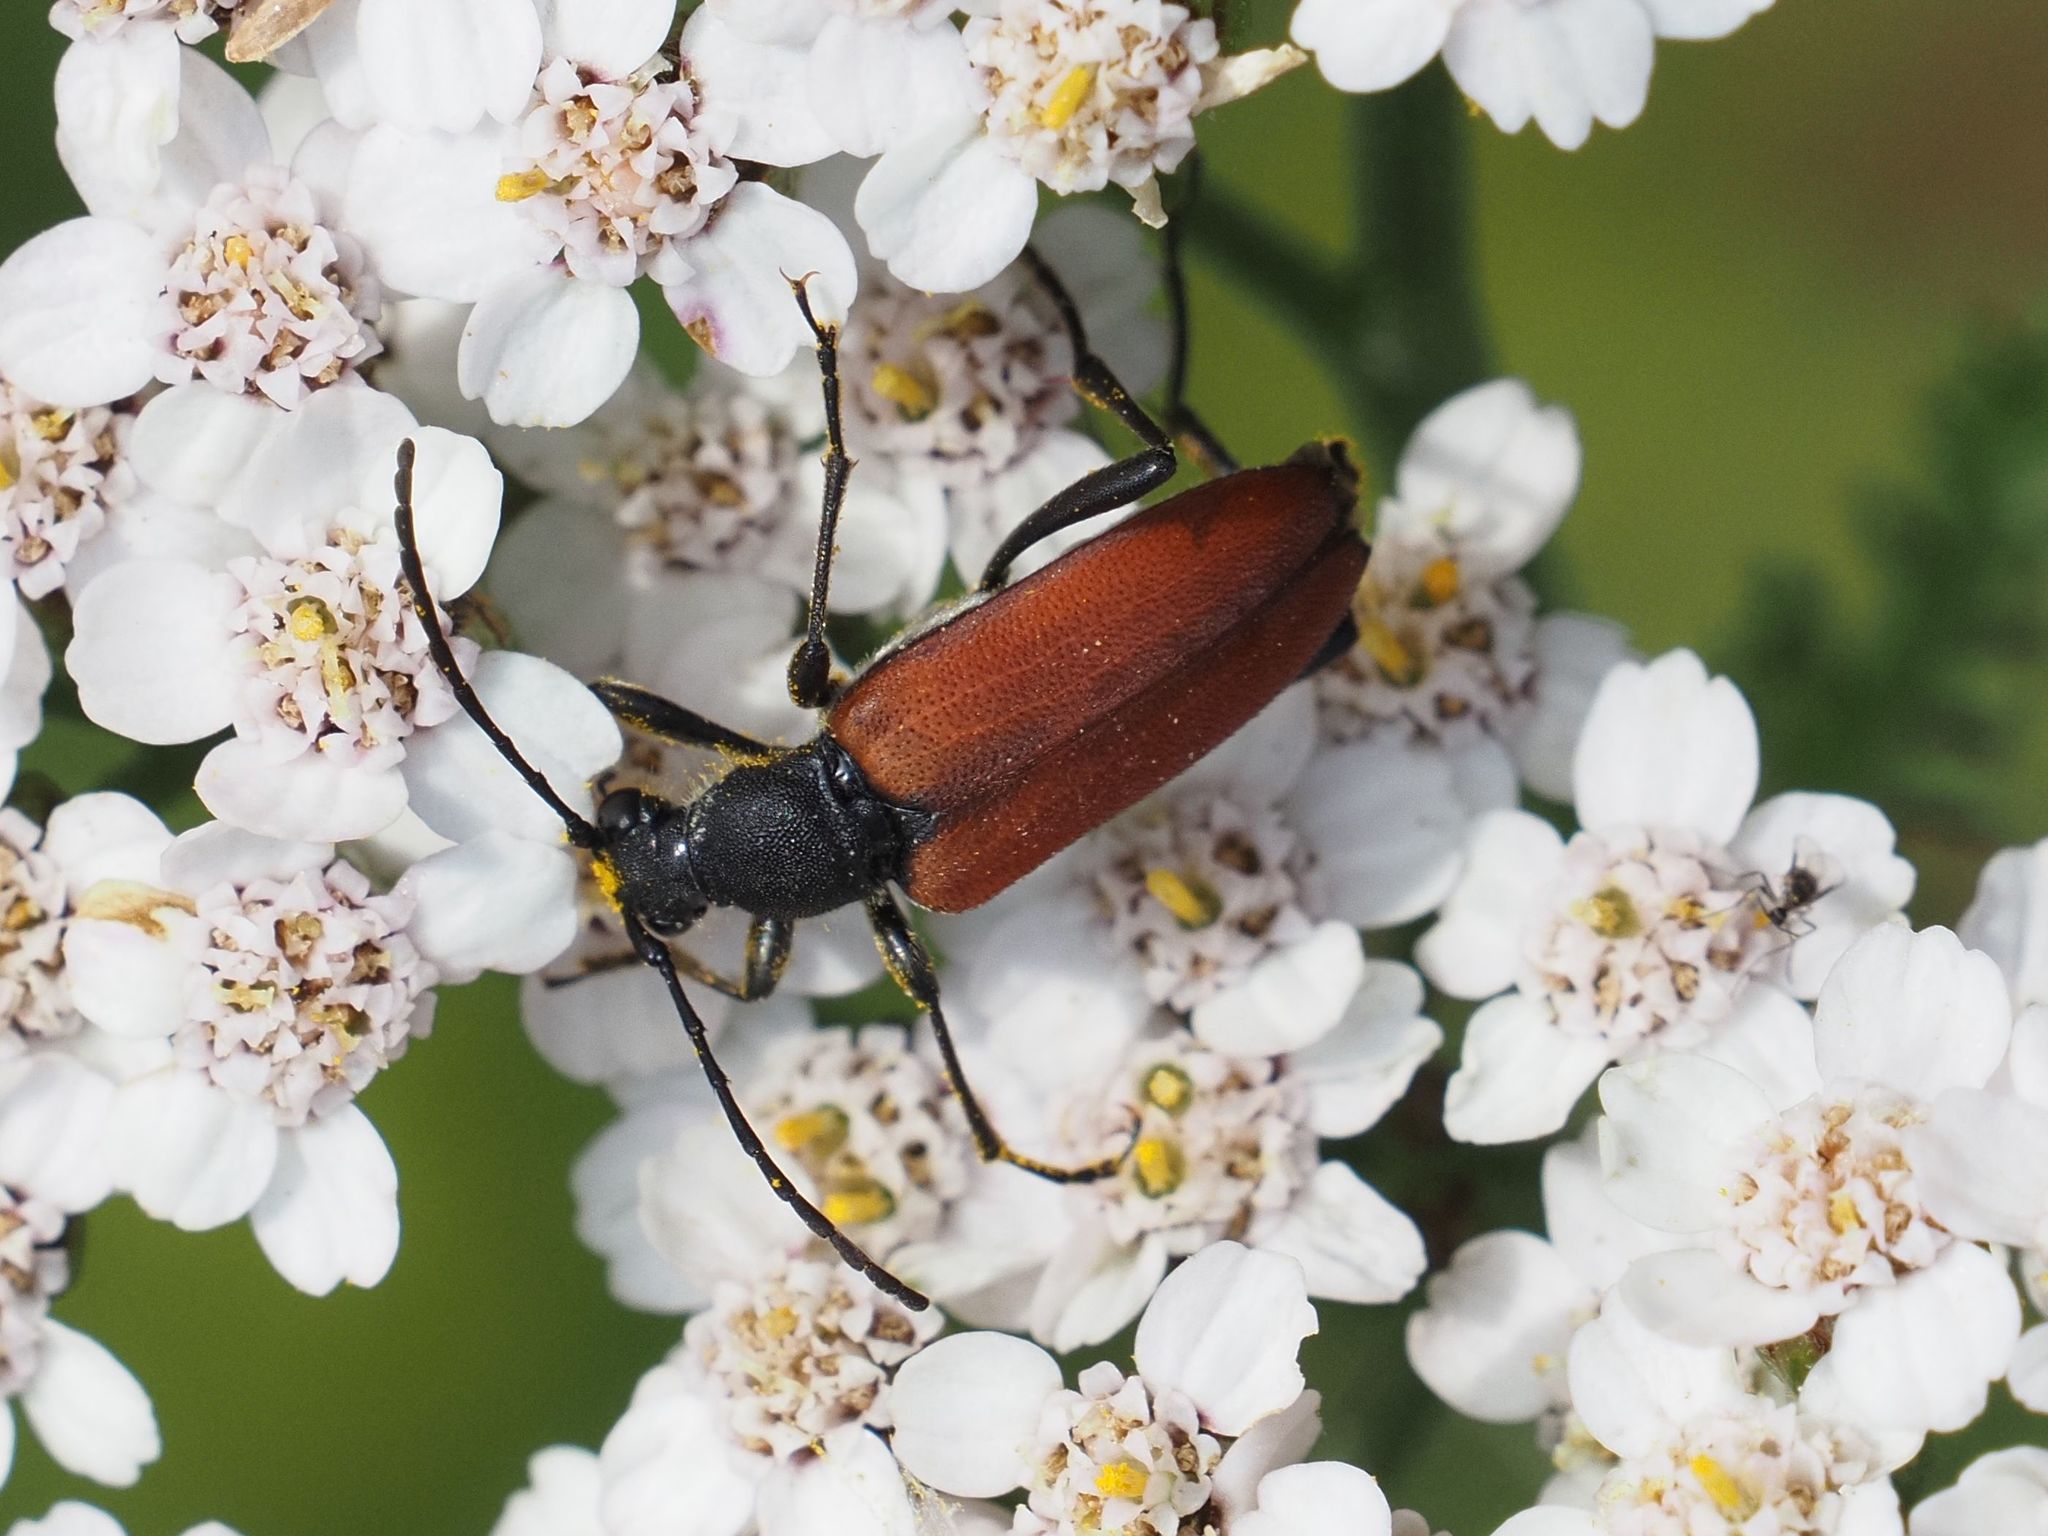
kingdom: Animalia
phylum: Arthropoda
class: Insecta
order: Coleoptera
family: Cerambycidae
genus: Anastrangalia
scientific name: Anastrangalia sanguinolenta
